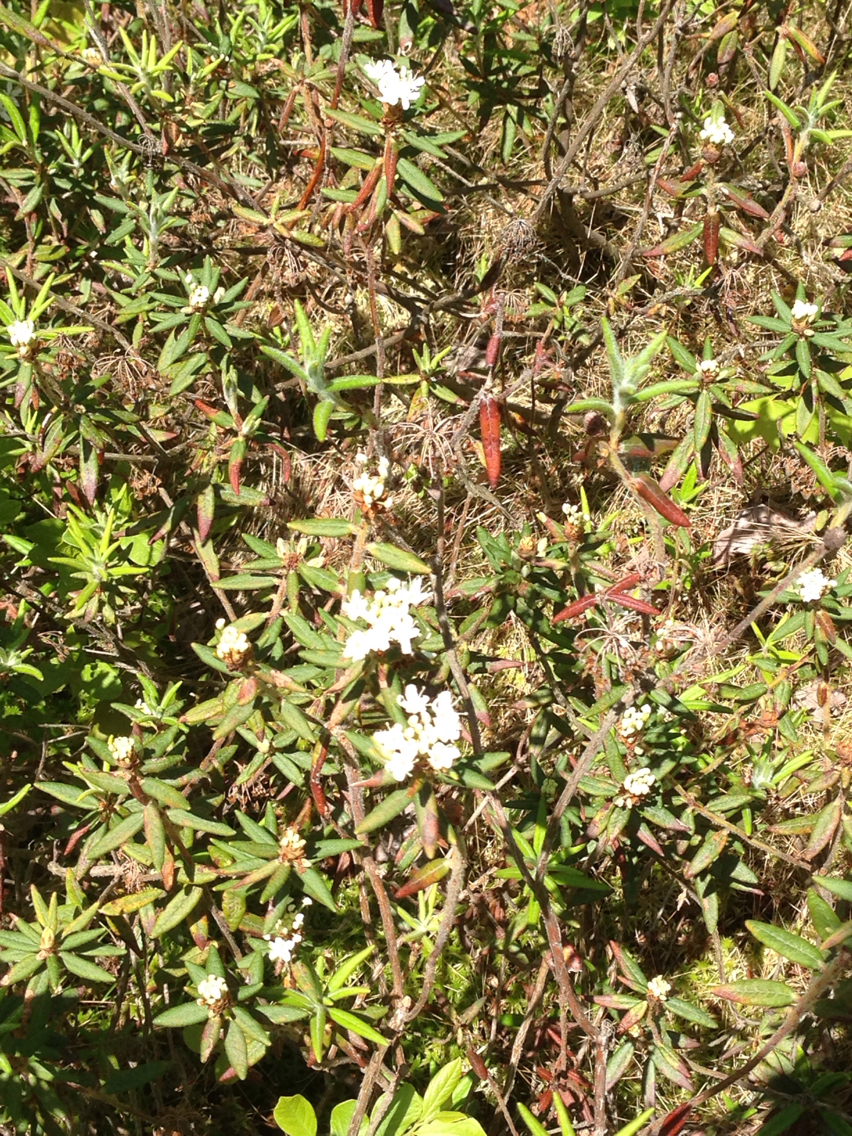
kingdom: Plantae
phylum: Tracheophyta
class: Magnoliopsida
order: Ericales
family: Ericaceae
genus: Rhododendron
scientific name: Rhododendron groenlandicum
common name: Bog labrador tea
